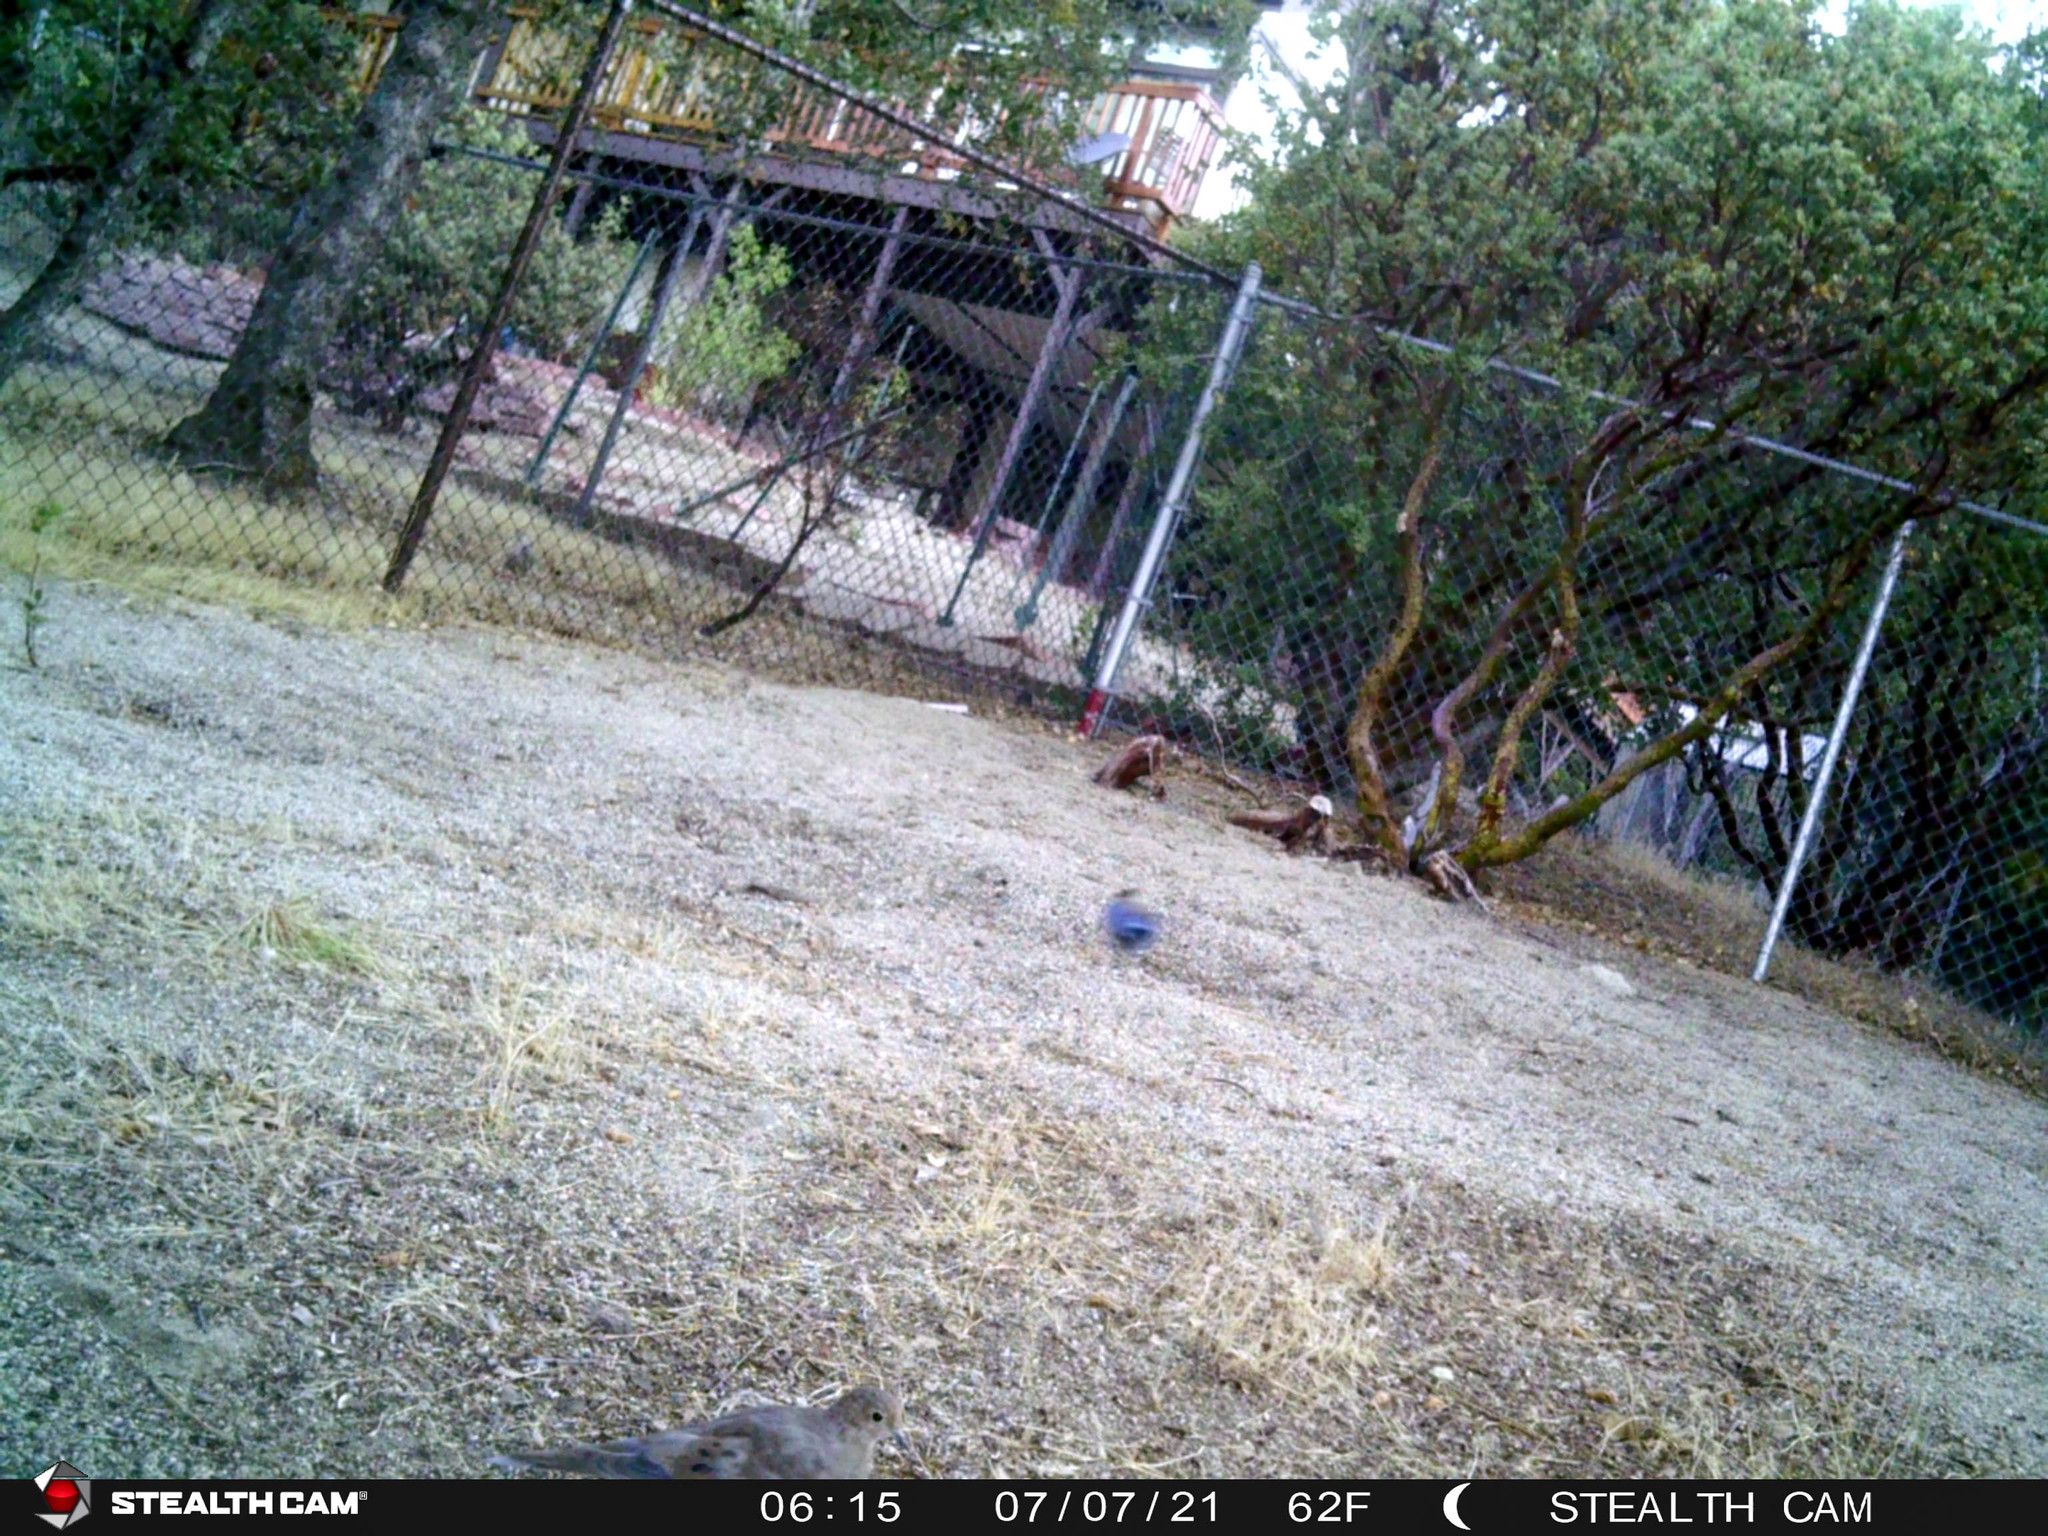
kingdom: Animalia
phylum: Chordata
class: Aves
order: Passeriformes
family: Corvidae
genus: Cyanocitta
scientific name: Cyanocitta stelleri
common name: Steller's jay
